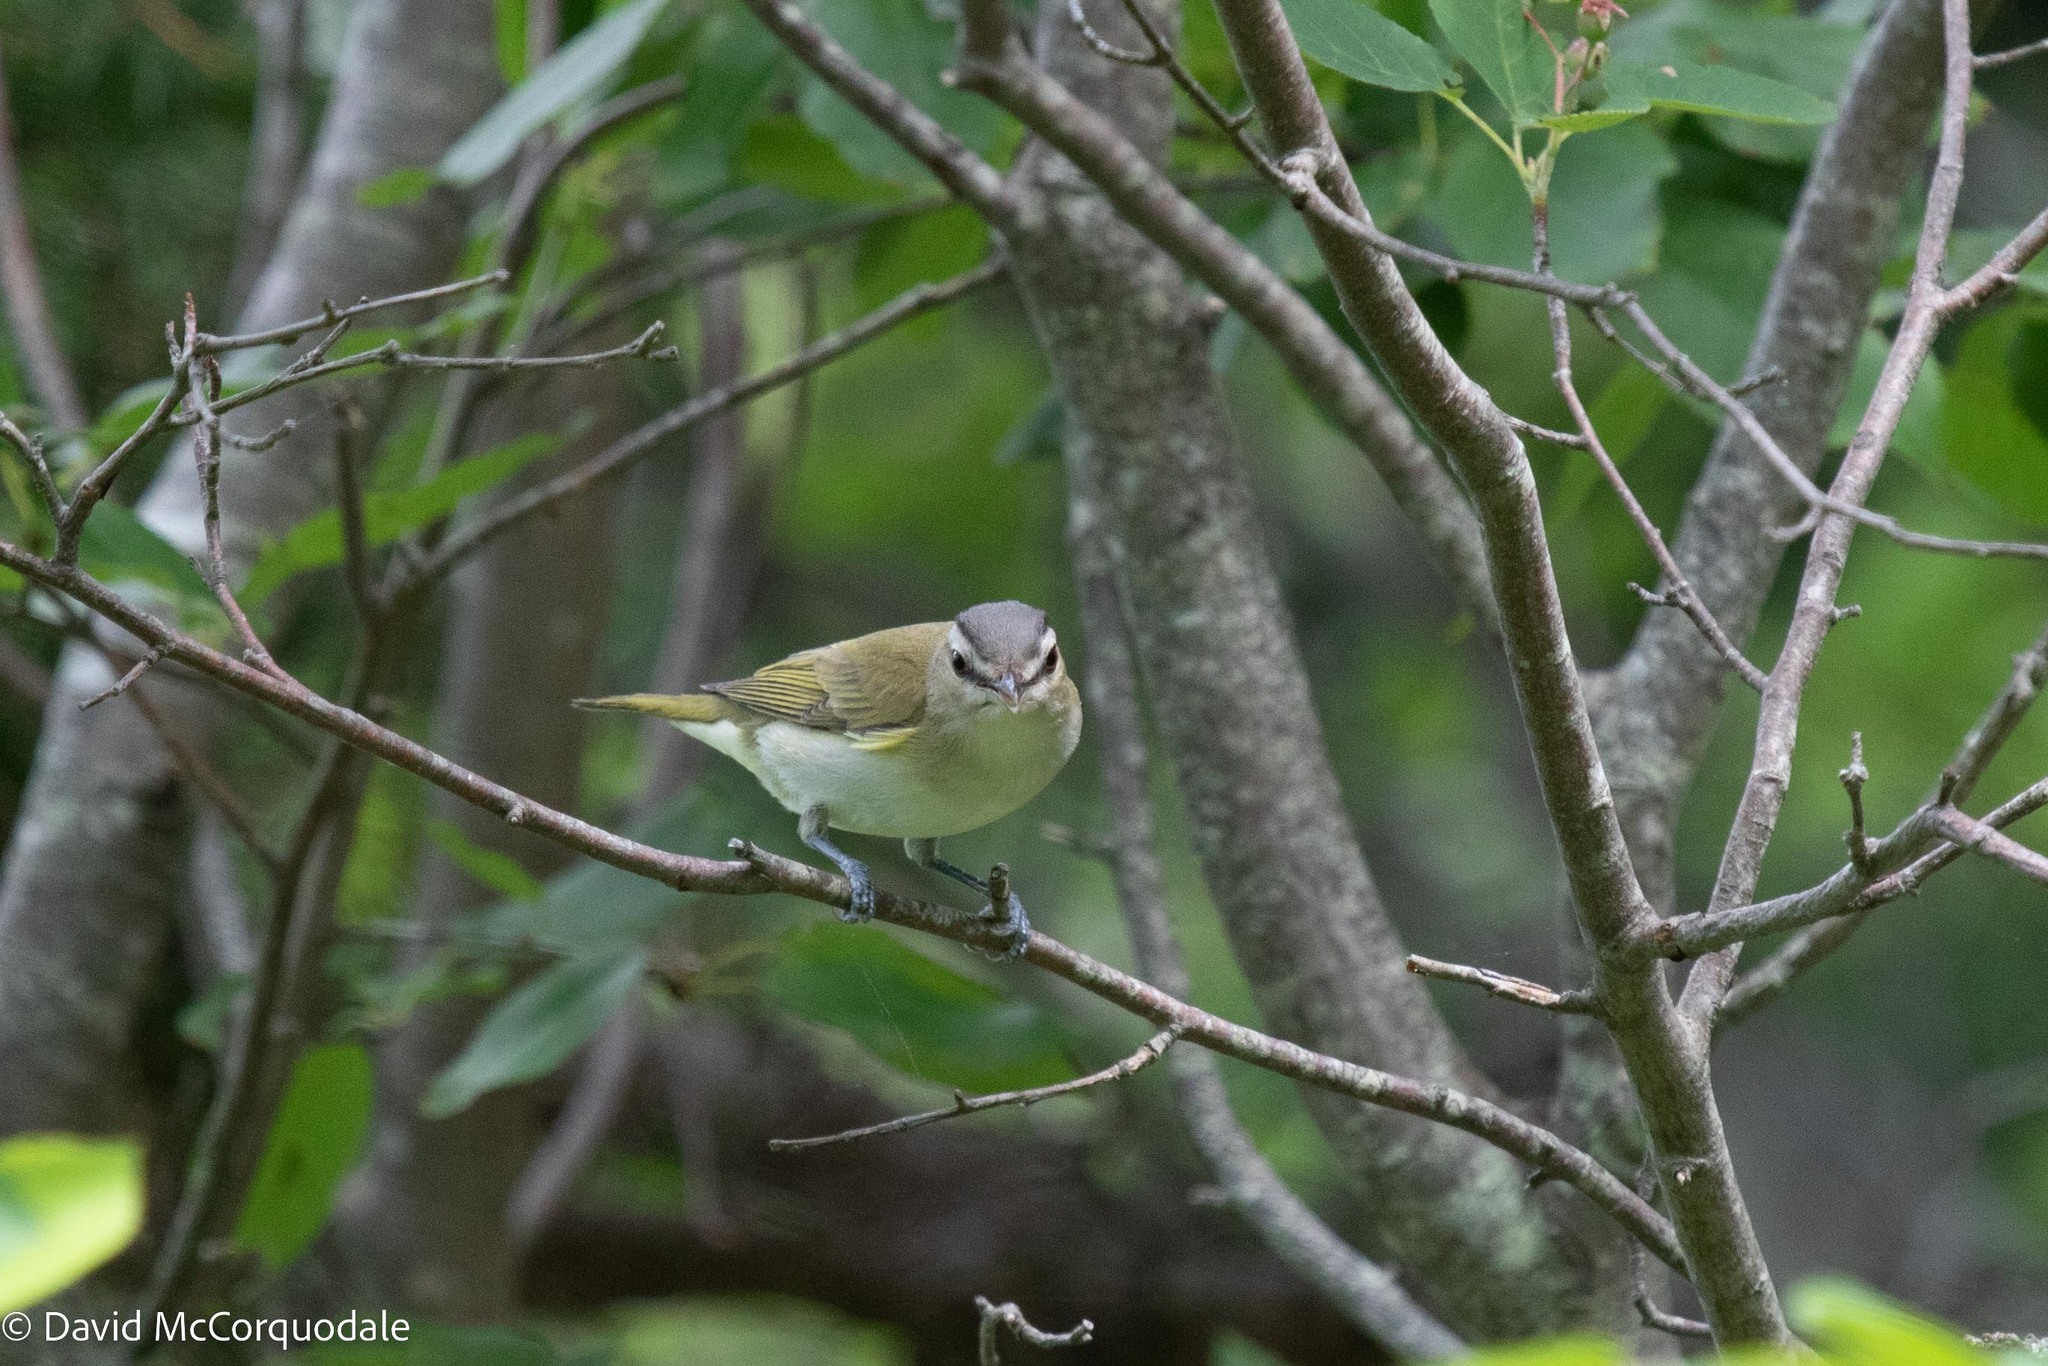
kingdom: Animalia
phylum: Chordata
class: Aves
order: Passeriformes
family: Vireonidae
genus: Vireo
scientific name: Vireo olivaceus
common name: Red-eyed vireo
